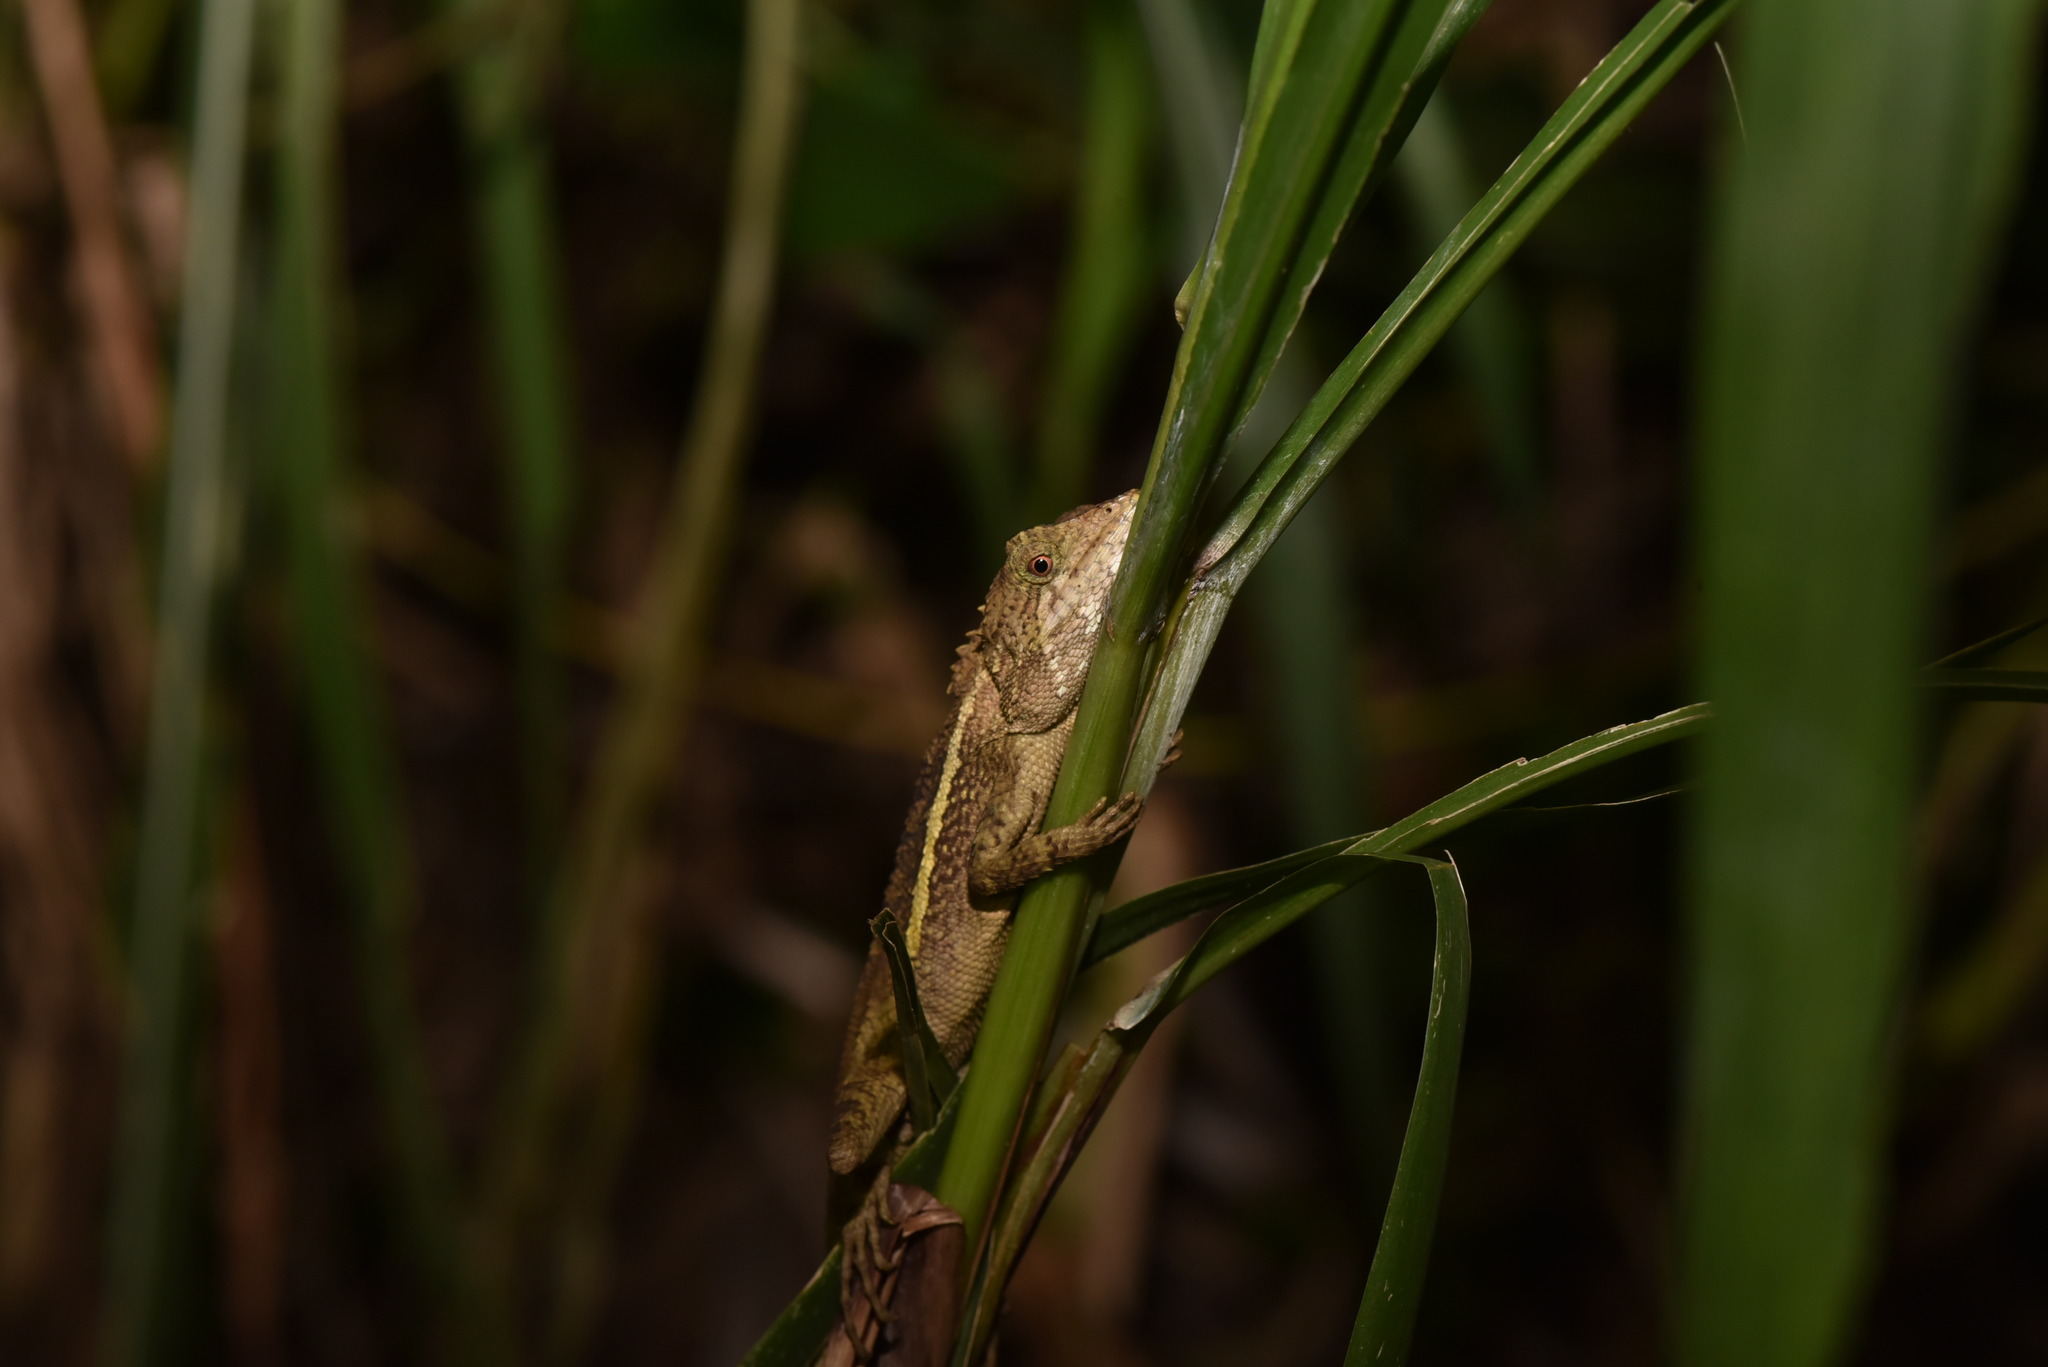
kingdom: Animalia
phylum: Chordata
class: Squamata
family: Agamidae
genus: Diploderma
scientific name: Diploderma swinhonis
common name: Taiwan japalure
